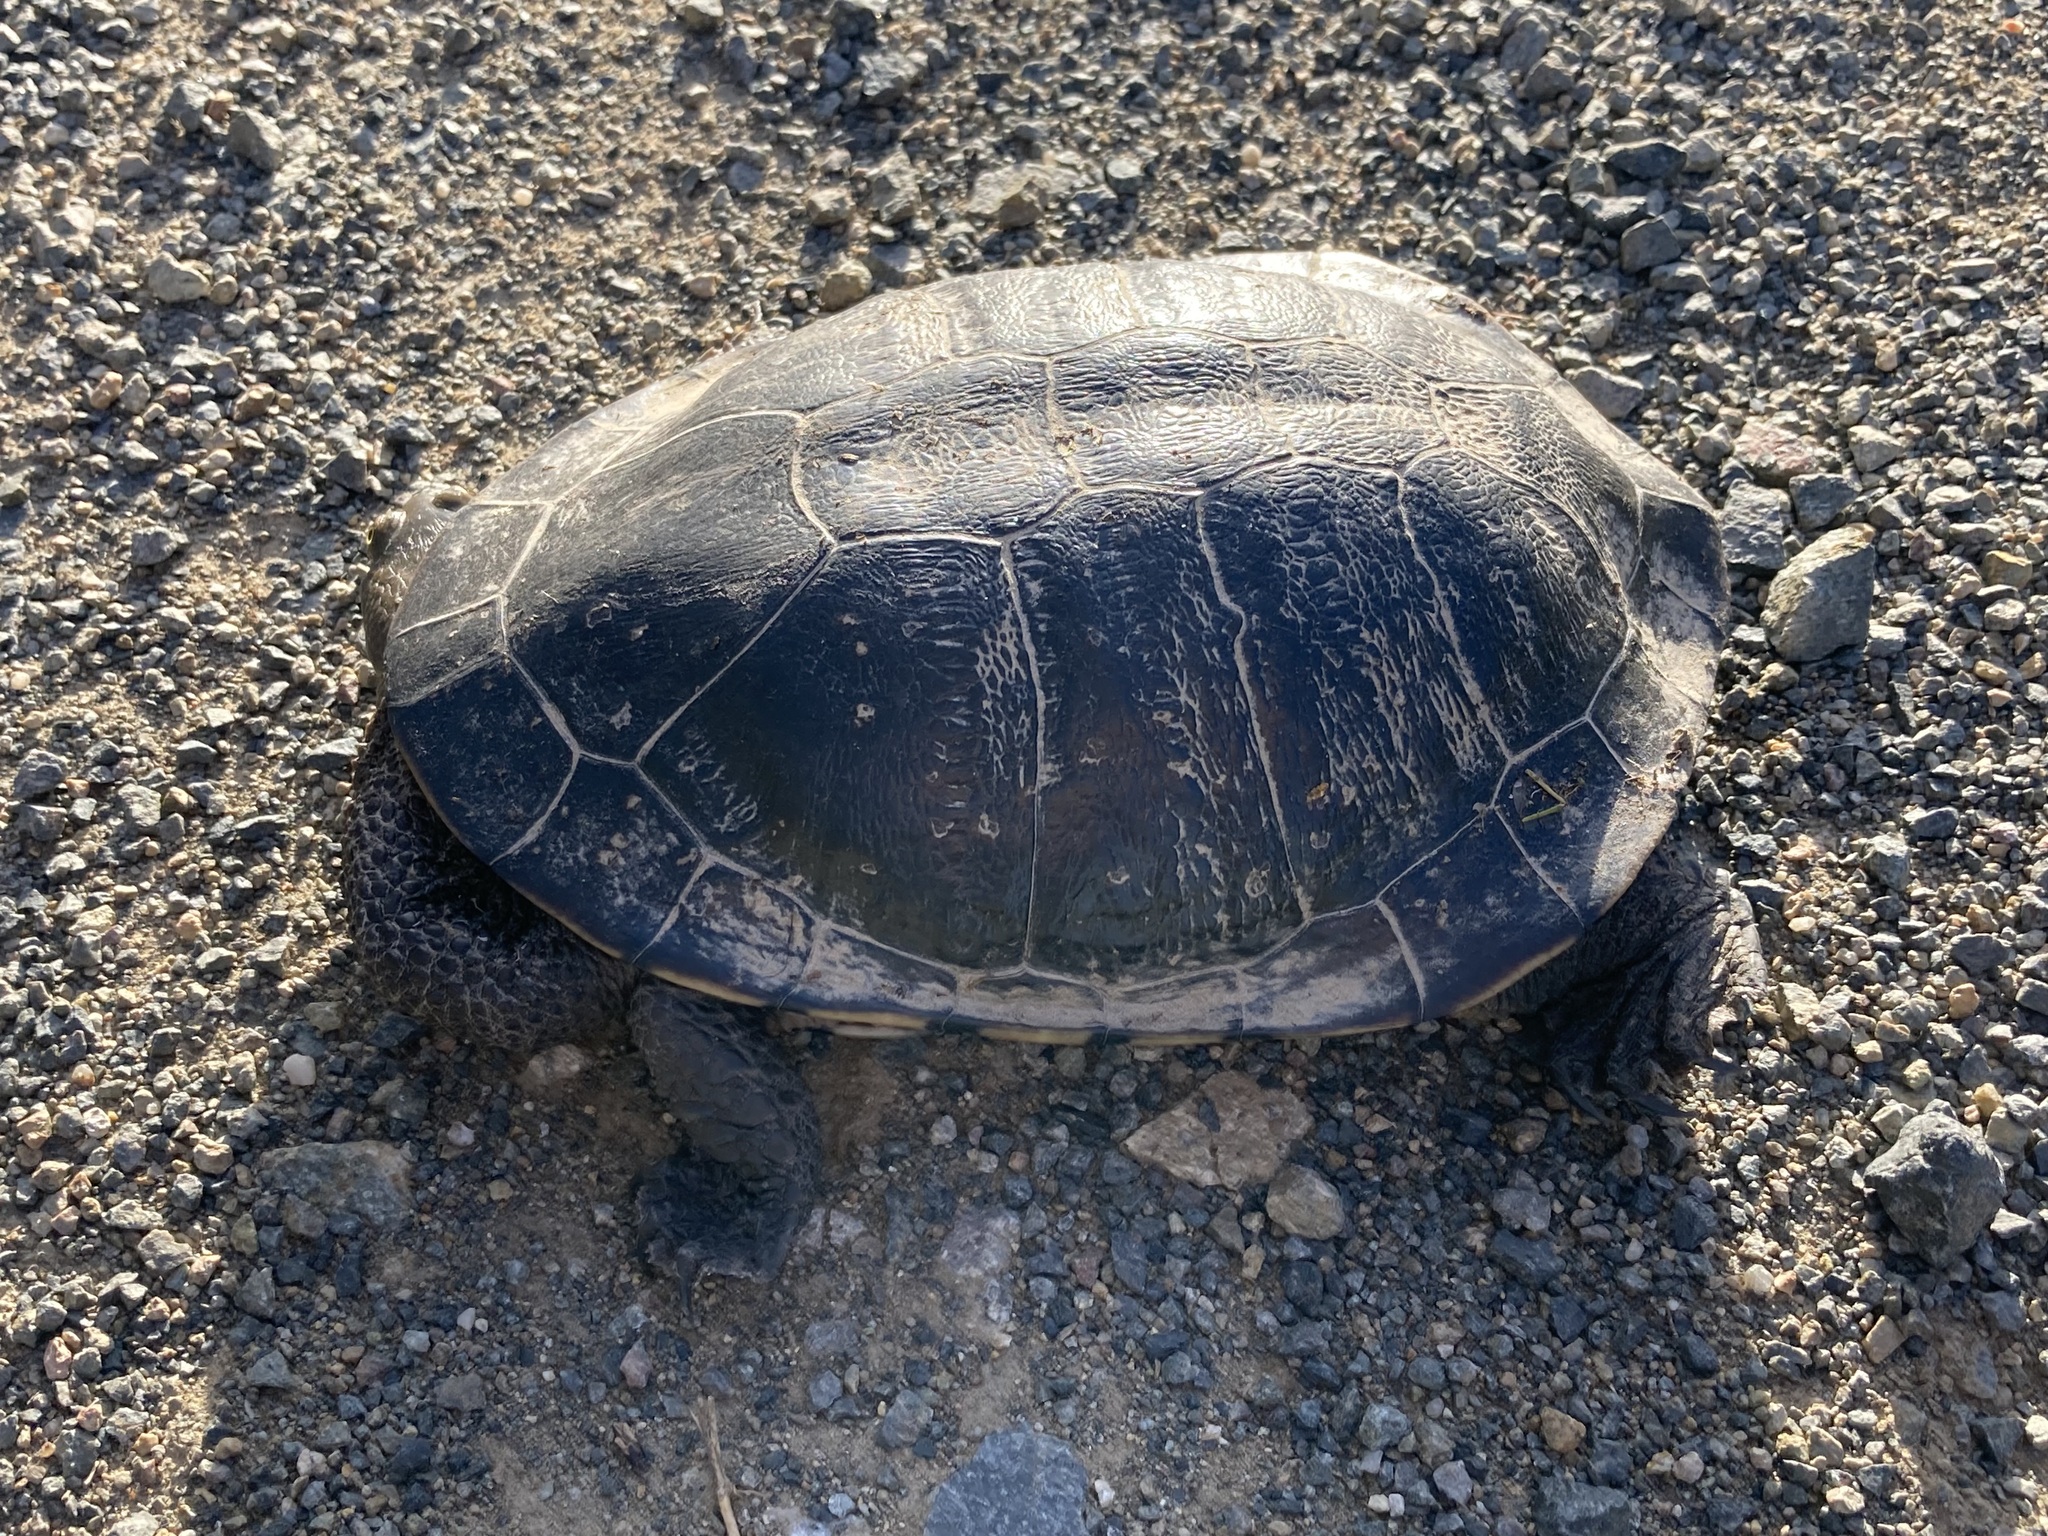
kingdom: Animalia
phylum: Chordata
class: Testudines
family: Chelidae
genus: Chelodina
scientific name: Chelodina longicollis
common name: Eastern snake-necked turtle
